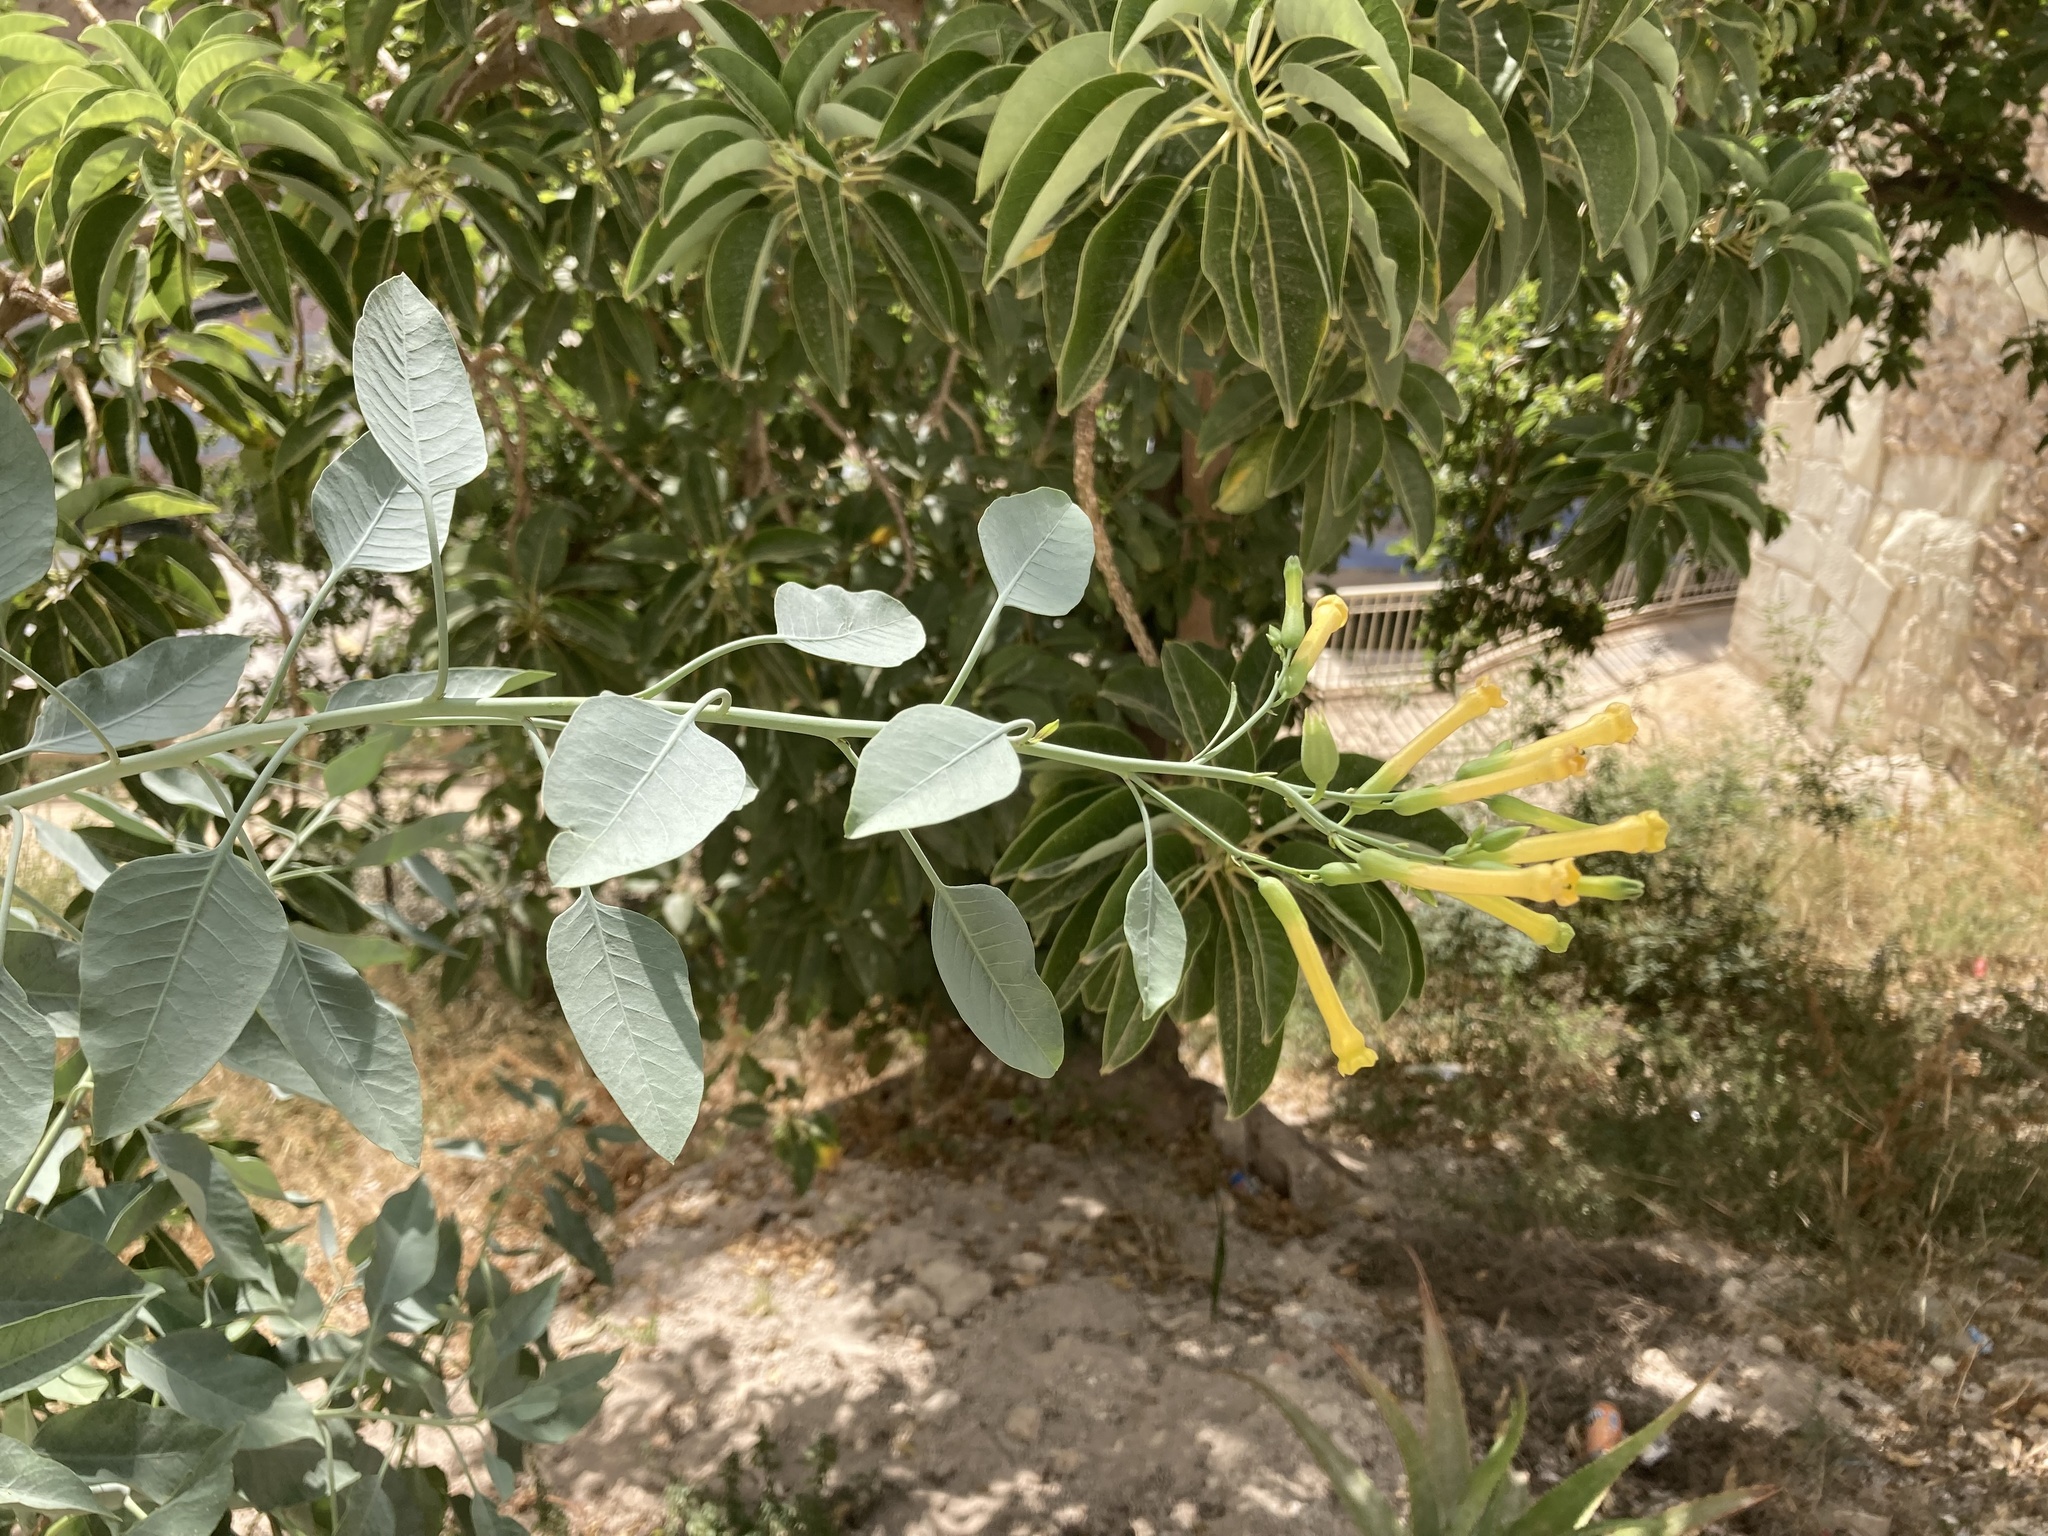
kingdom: Plantae
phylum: Tracheophyta
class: Magnoliopsida
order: Solanales
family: Solanaceae
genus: Nicotiana
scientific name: Nicotiana glauca
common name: Tree tobacco
